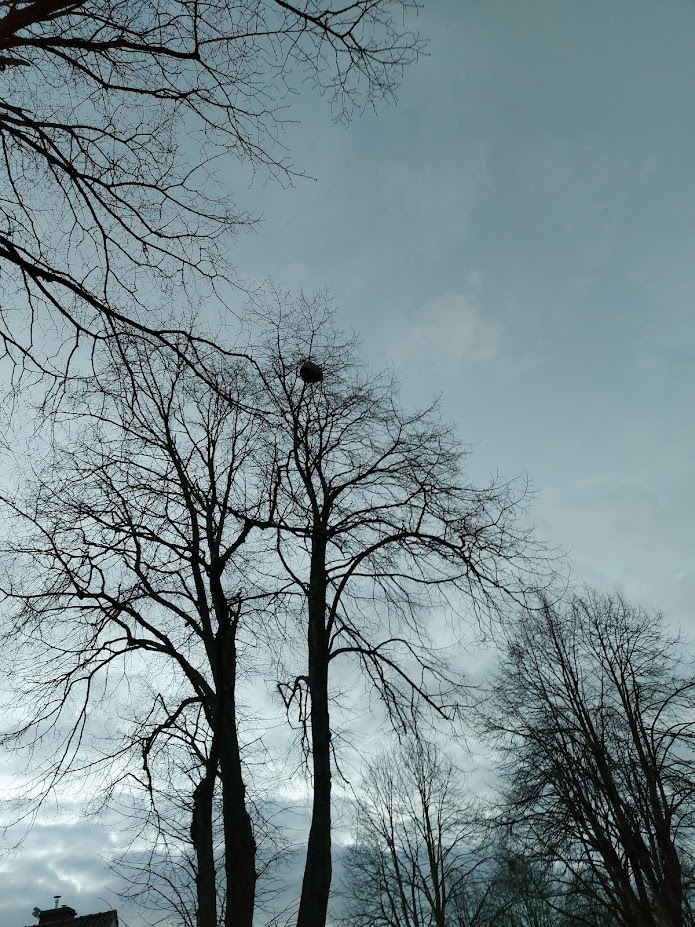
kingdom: Animalia
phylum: Arthropoda
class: Insecta
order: Hymenoptera
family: Vespidae
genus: Vespa
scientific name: Vespa velutina
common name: Asian hornet
